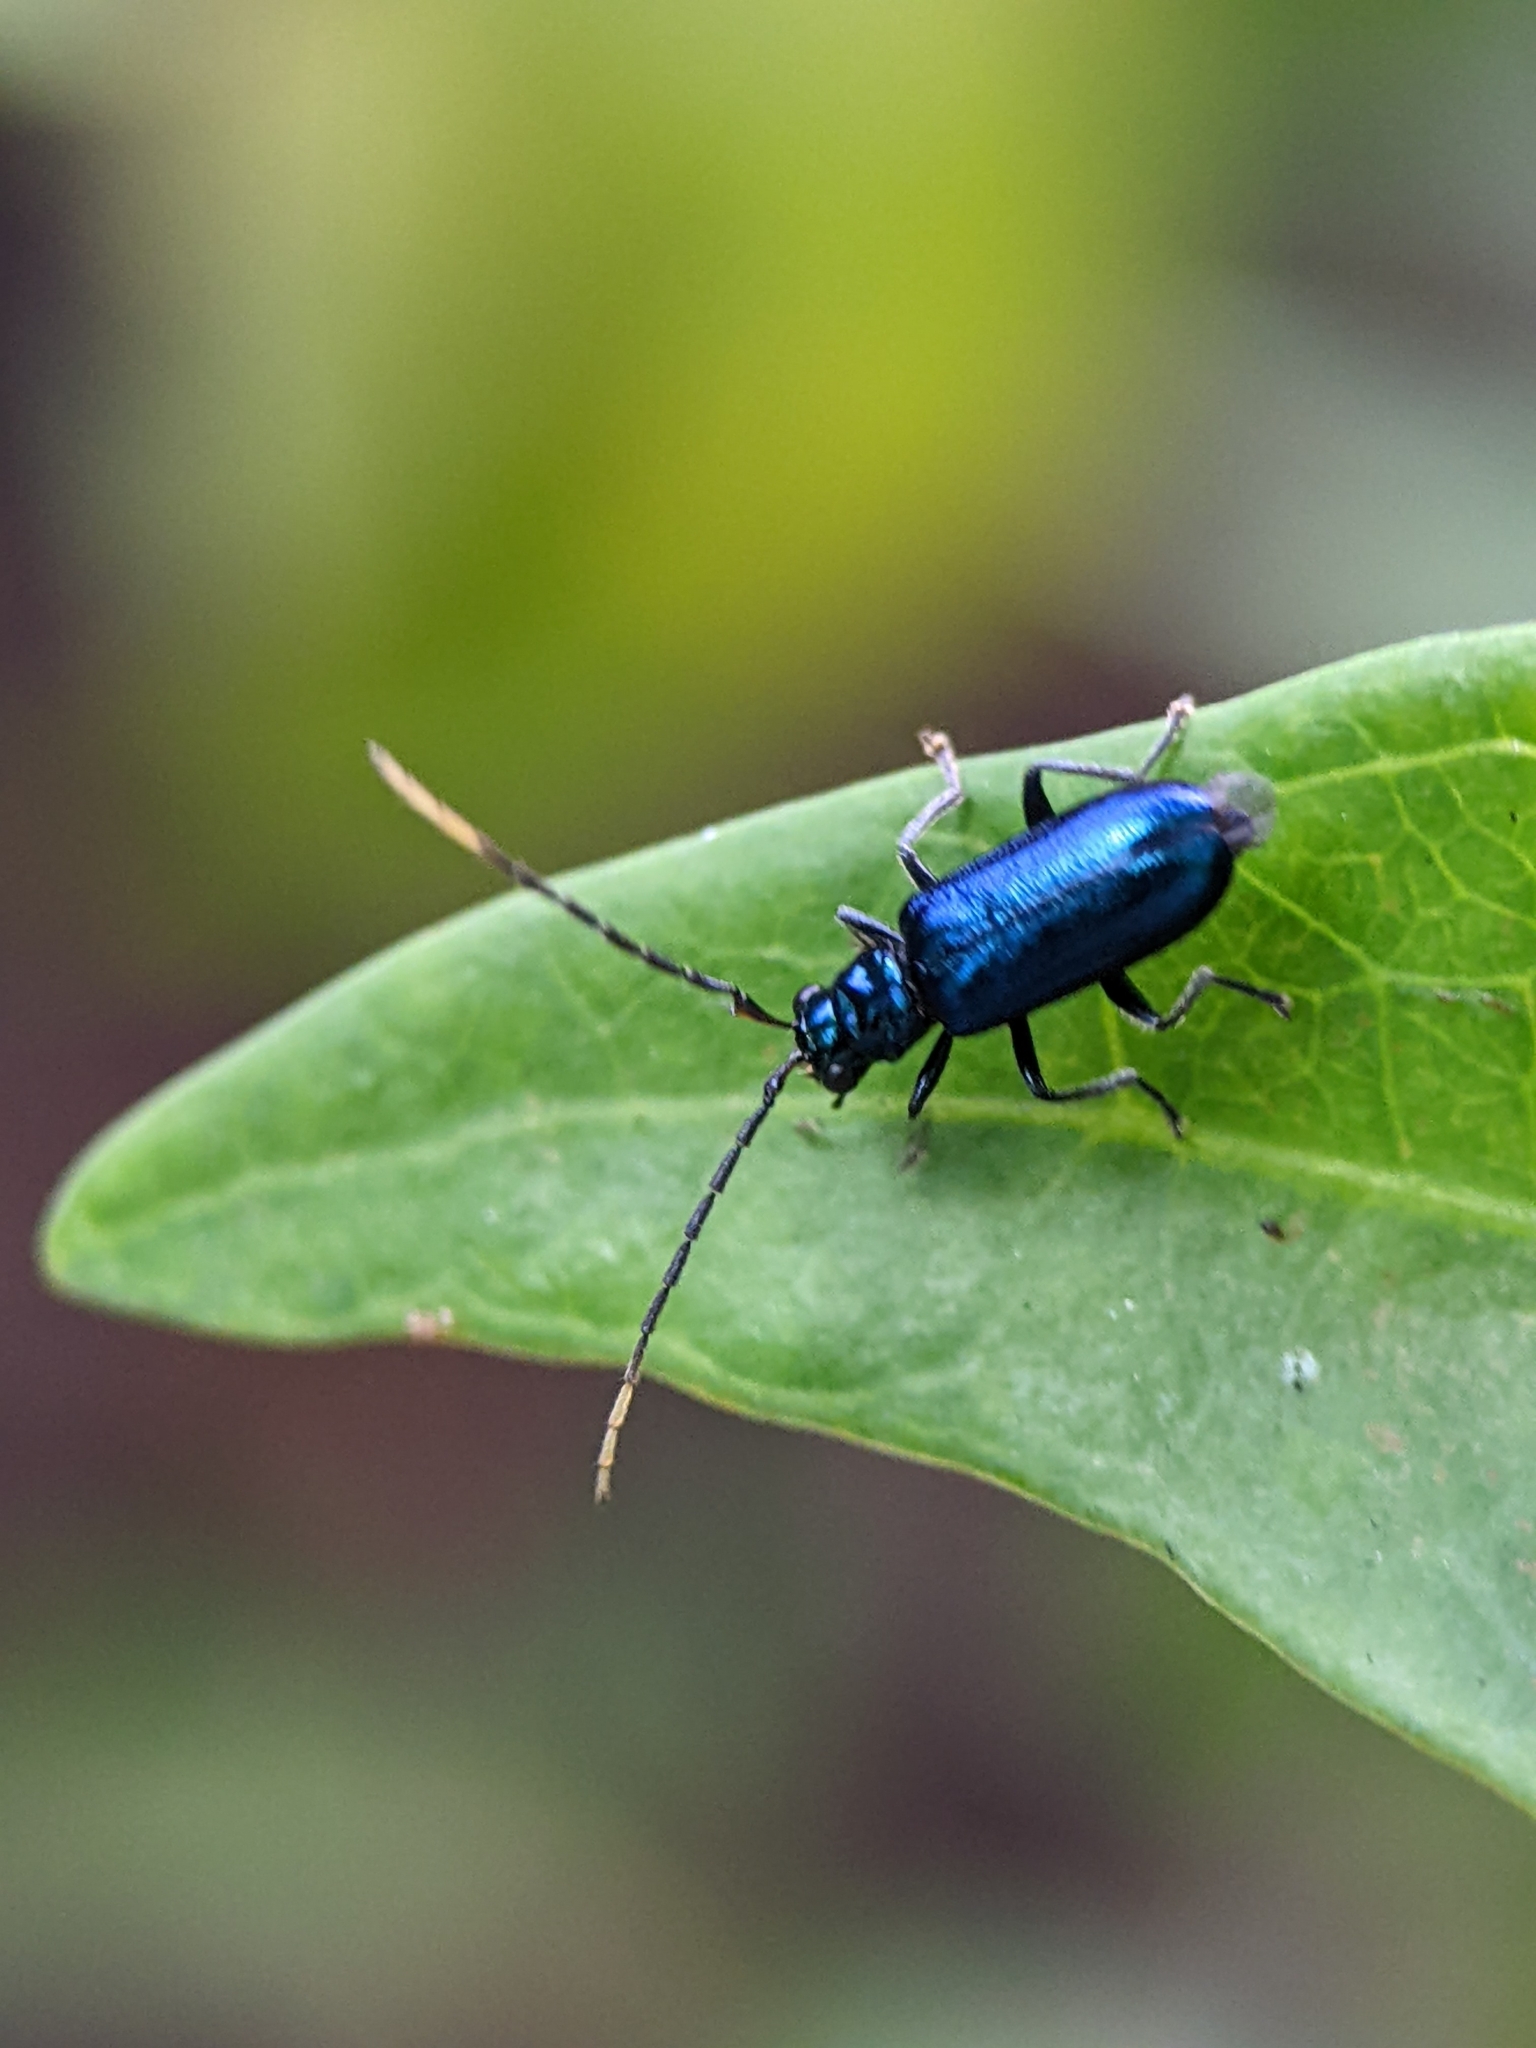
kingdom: Animalia
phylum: Arthropoda
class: Insecta
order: Coleoptera
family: Chrysomelidae
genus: Hoplosaenidea
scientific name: Hoplosaenidea
